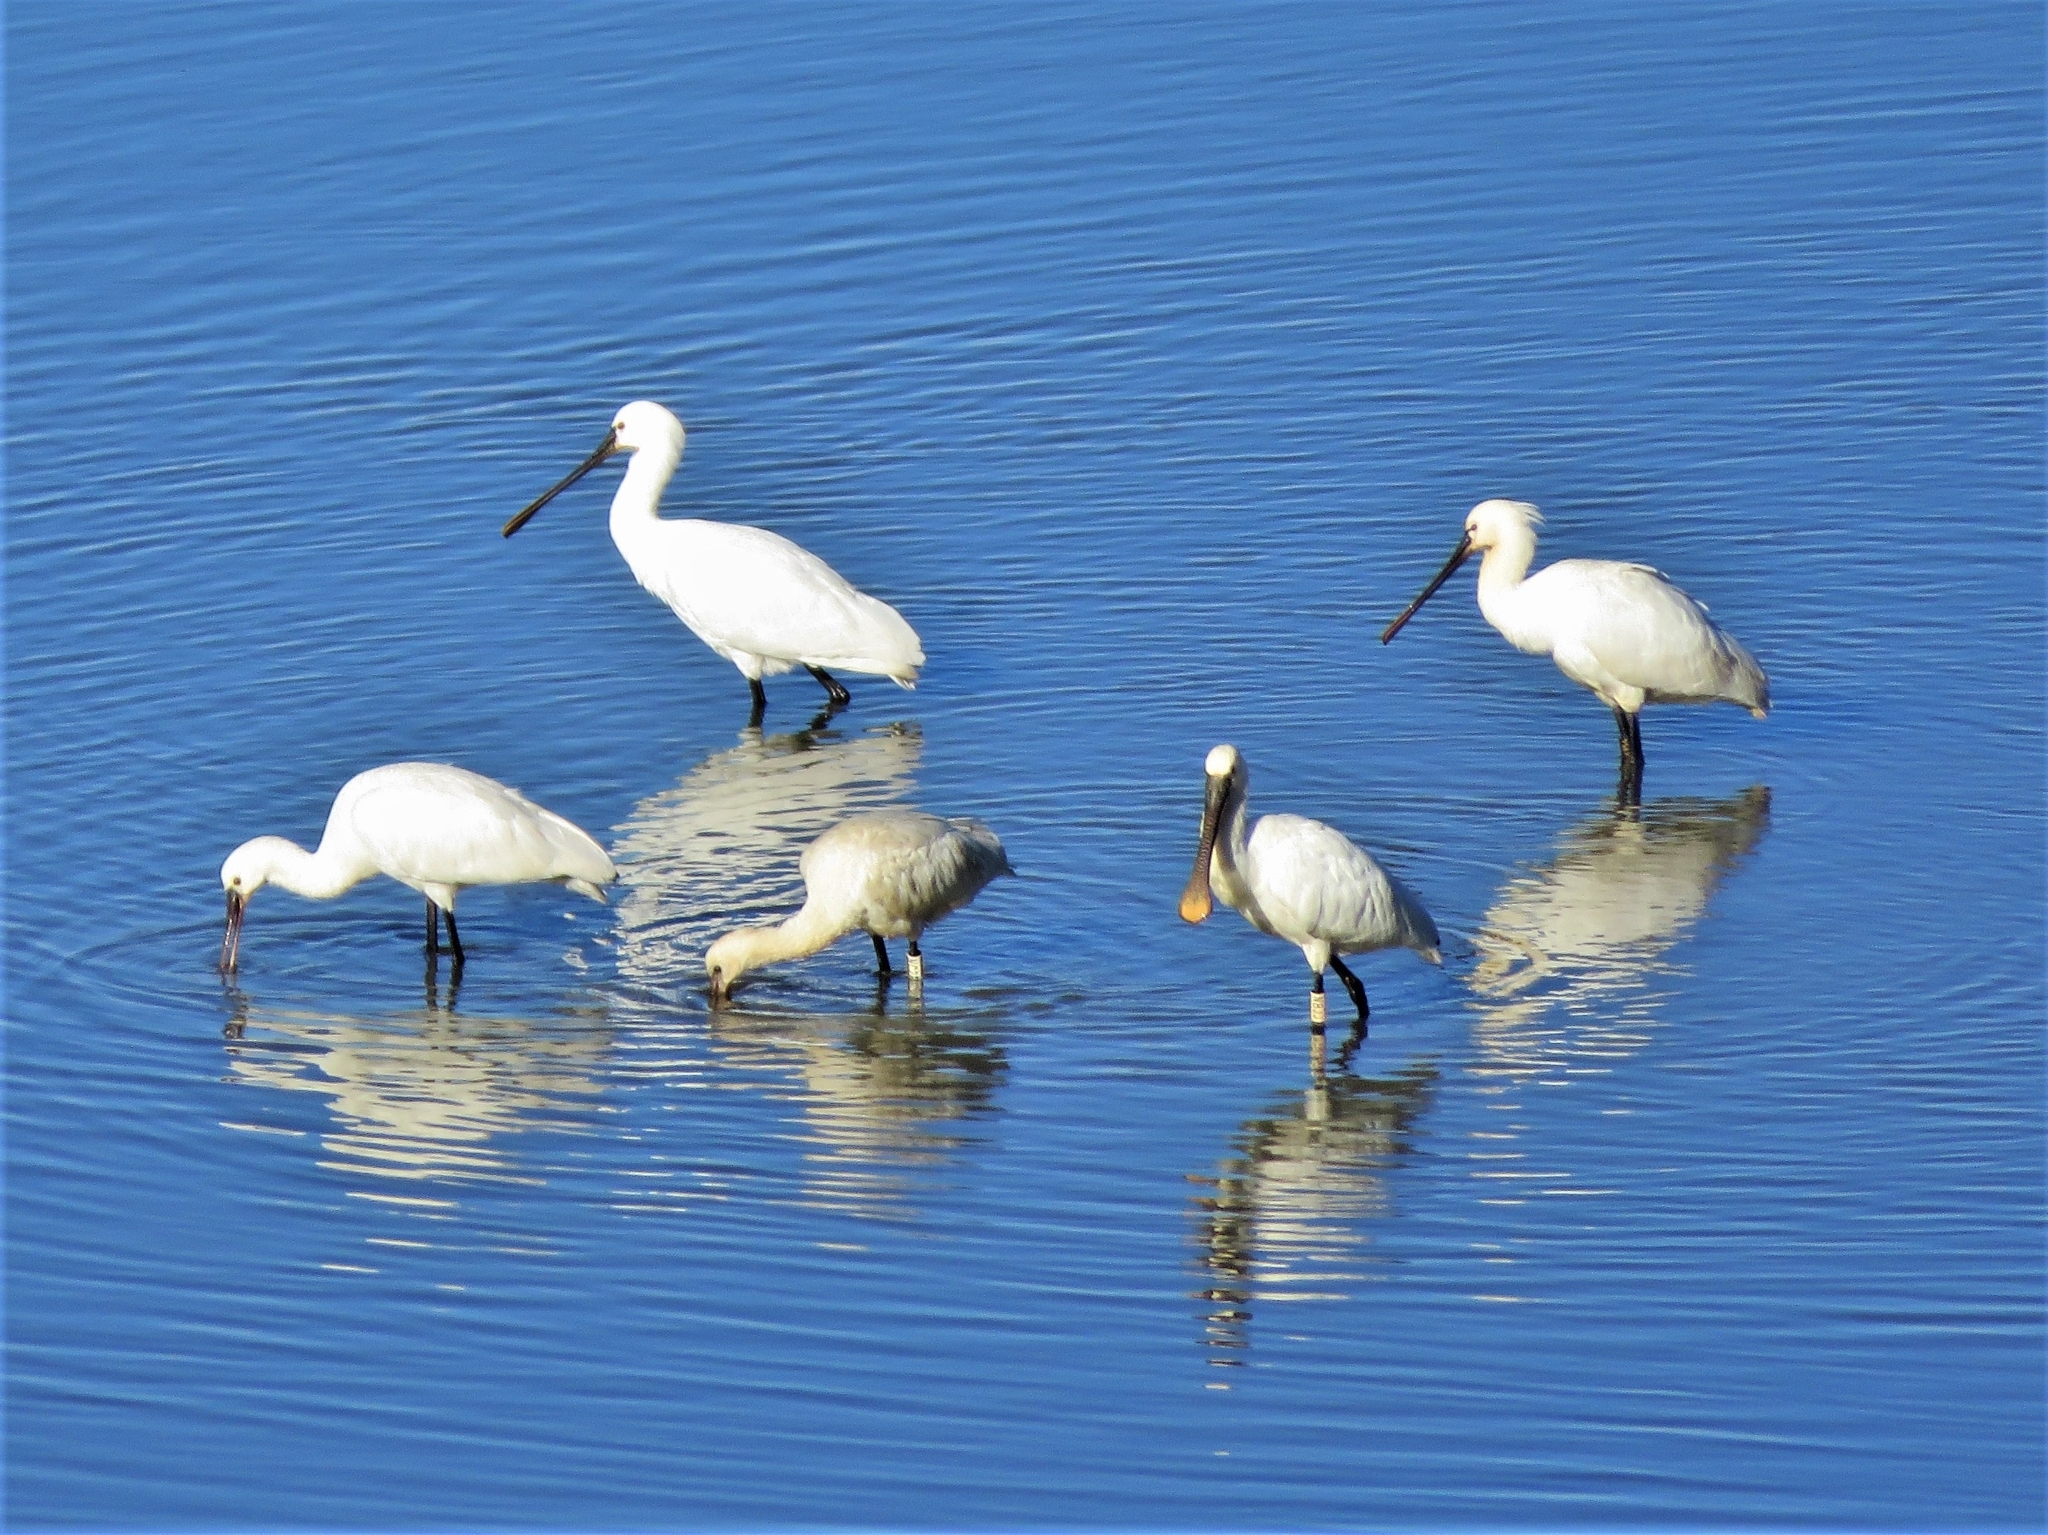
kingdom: Animalia
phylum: Chordata
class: Aves
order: Pelecaniformes
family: Threskiornithidae
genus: Platalea
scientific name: Platalea leucorodia
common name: Eurasian spoonbill
